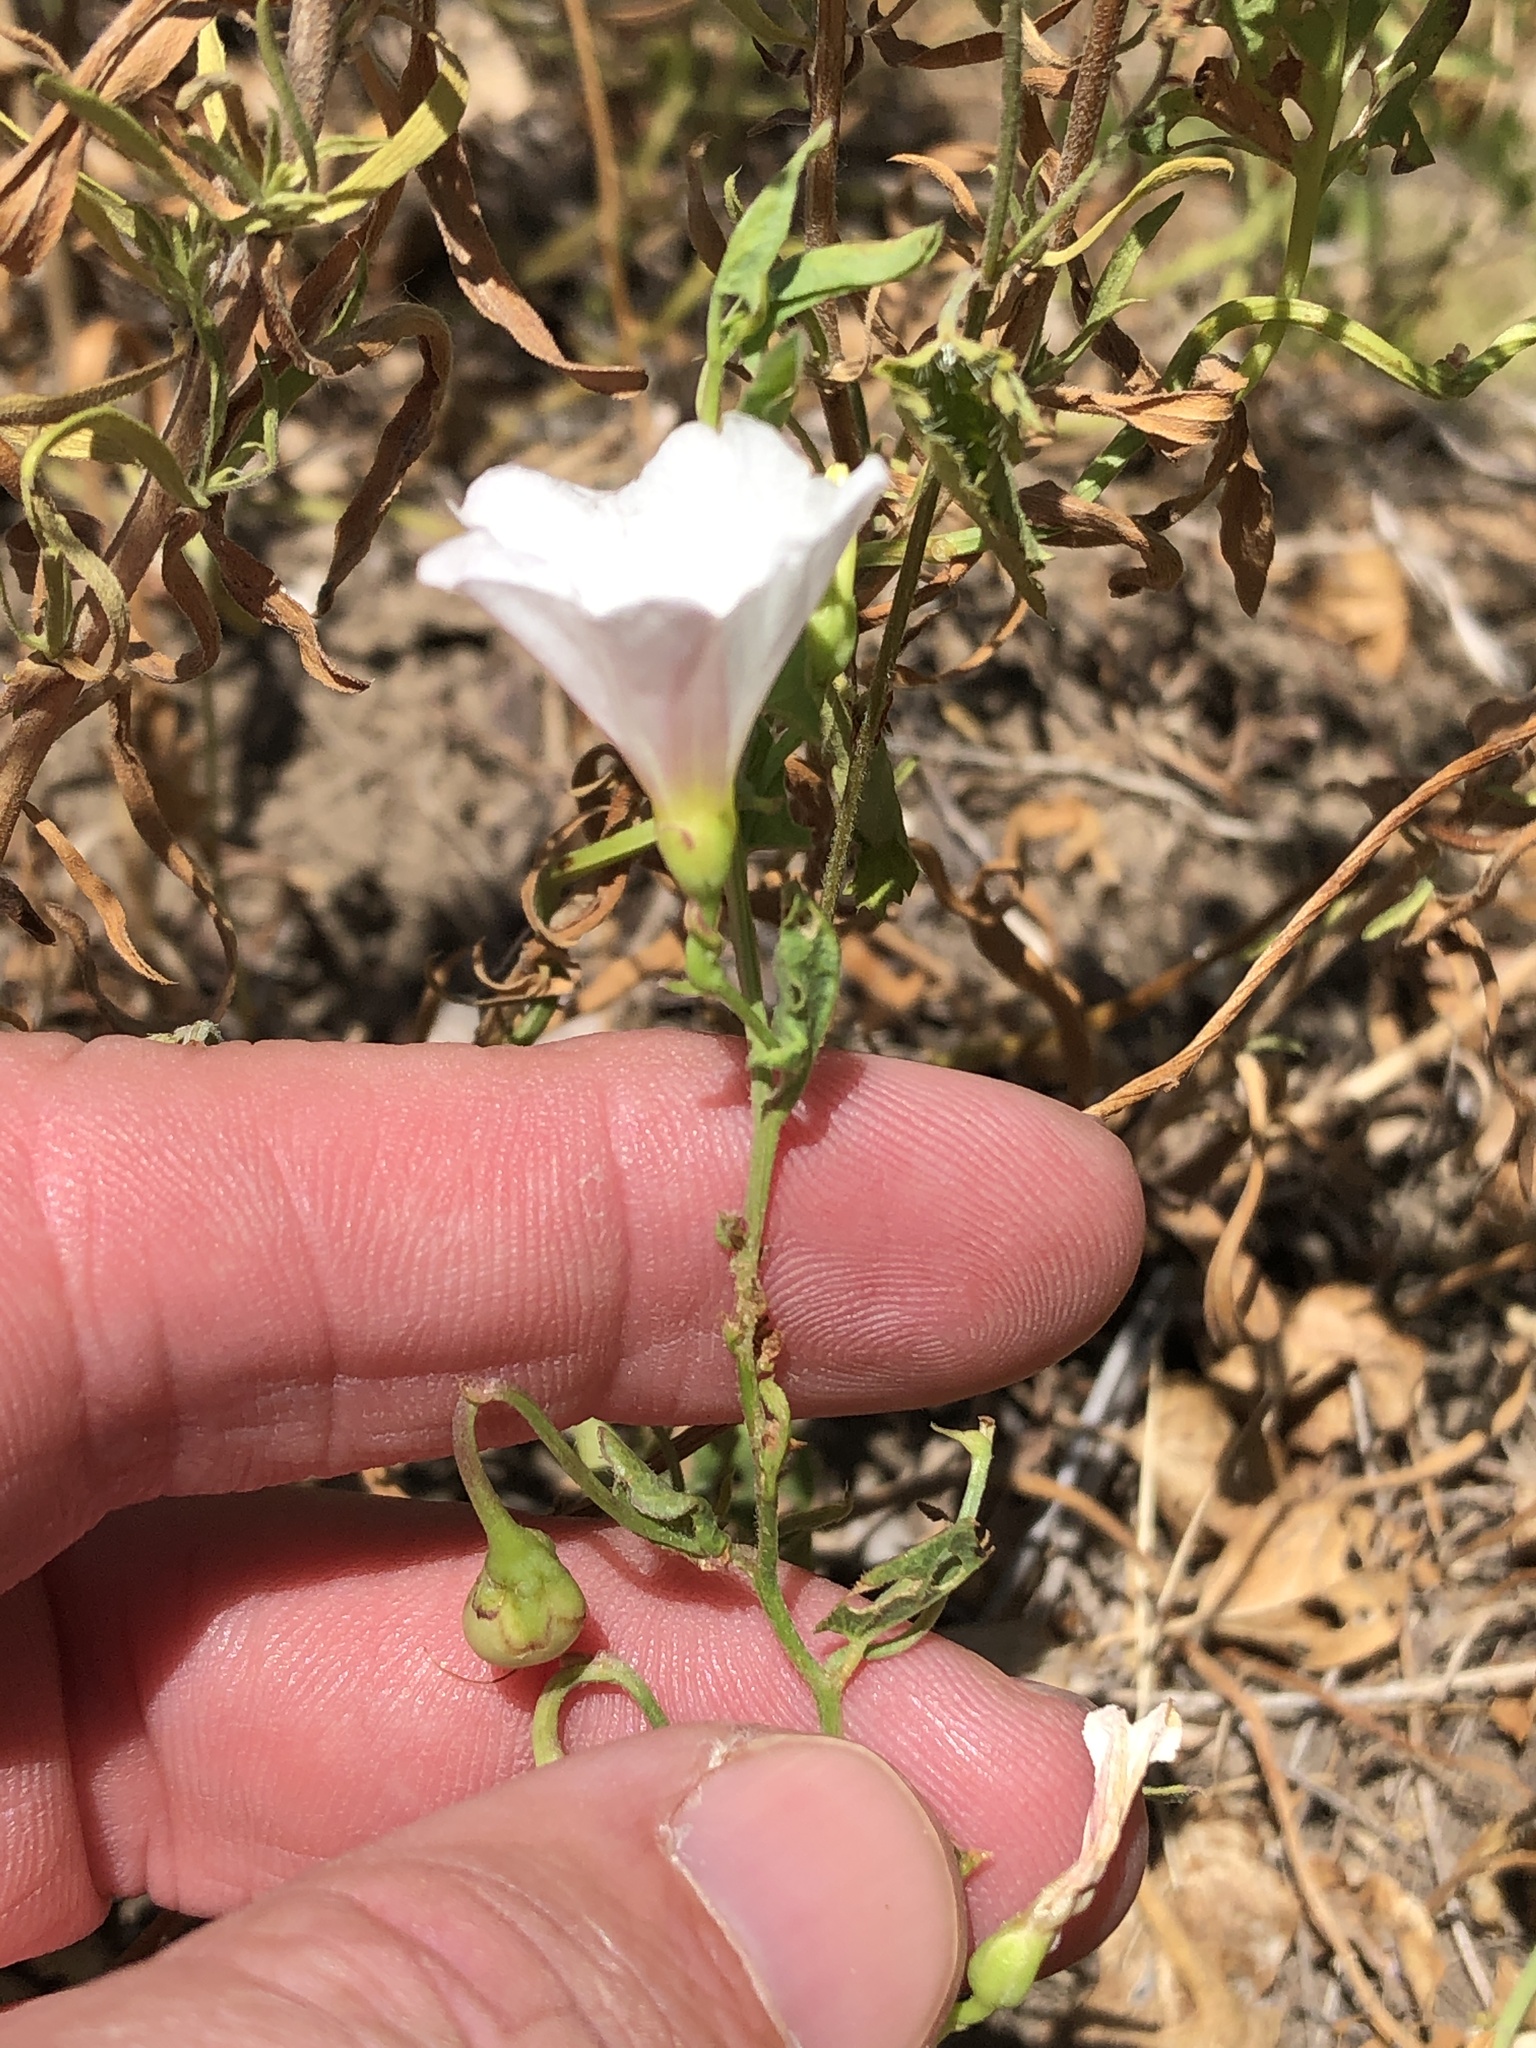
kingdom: Plantae
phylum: Tracheophyta
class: Magnoliopsida
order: Solanales
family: Convolvulaceae
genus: Convolvulus
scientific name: Convolvulus arvensis
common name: Field bindweed
